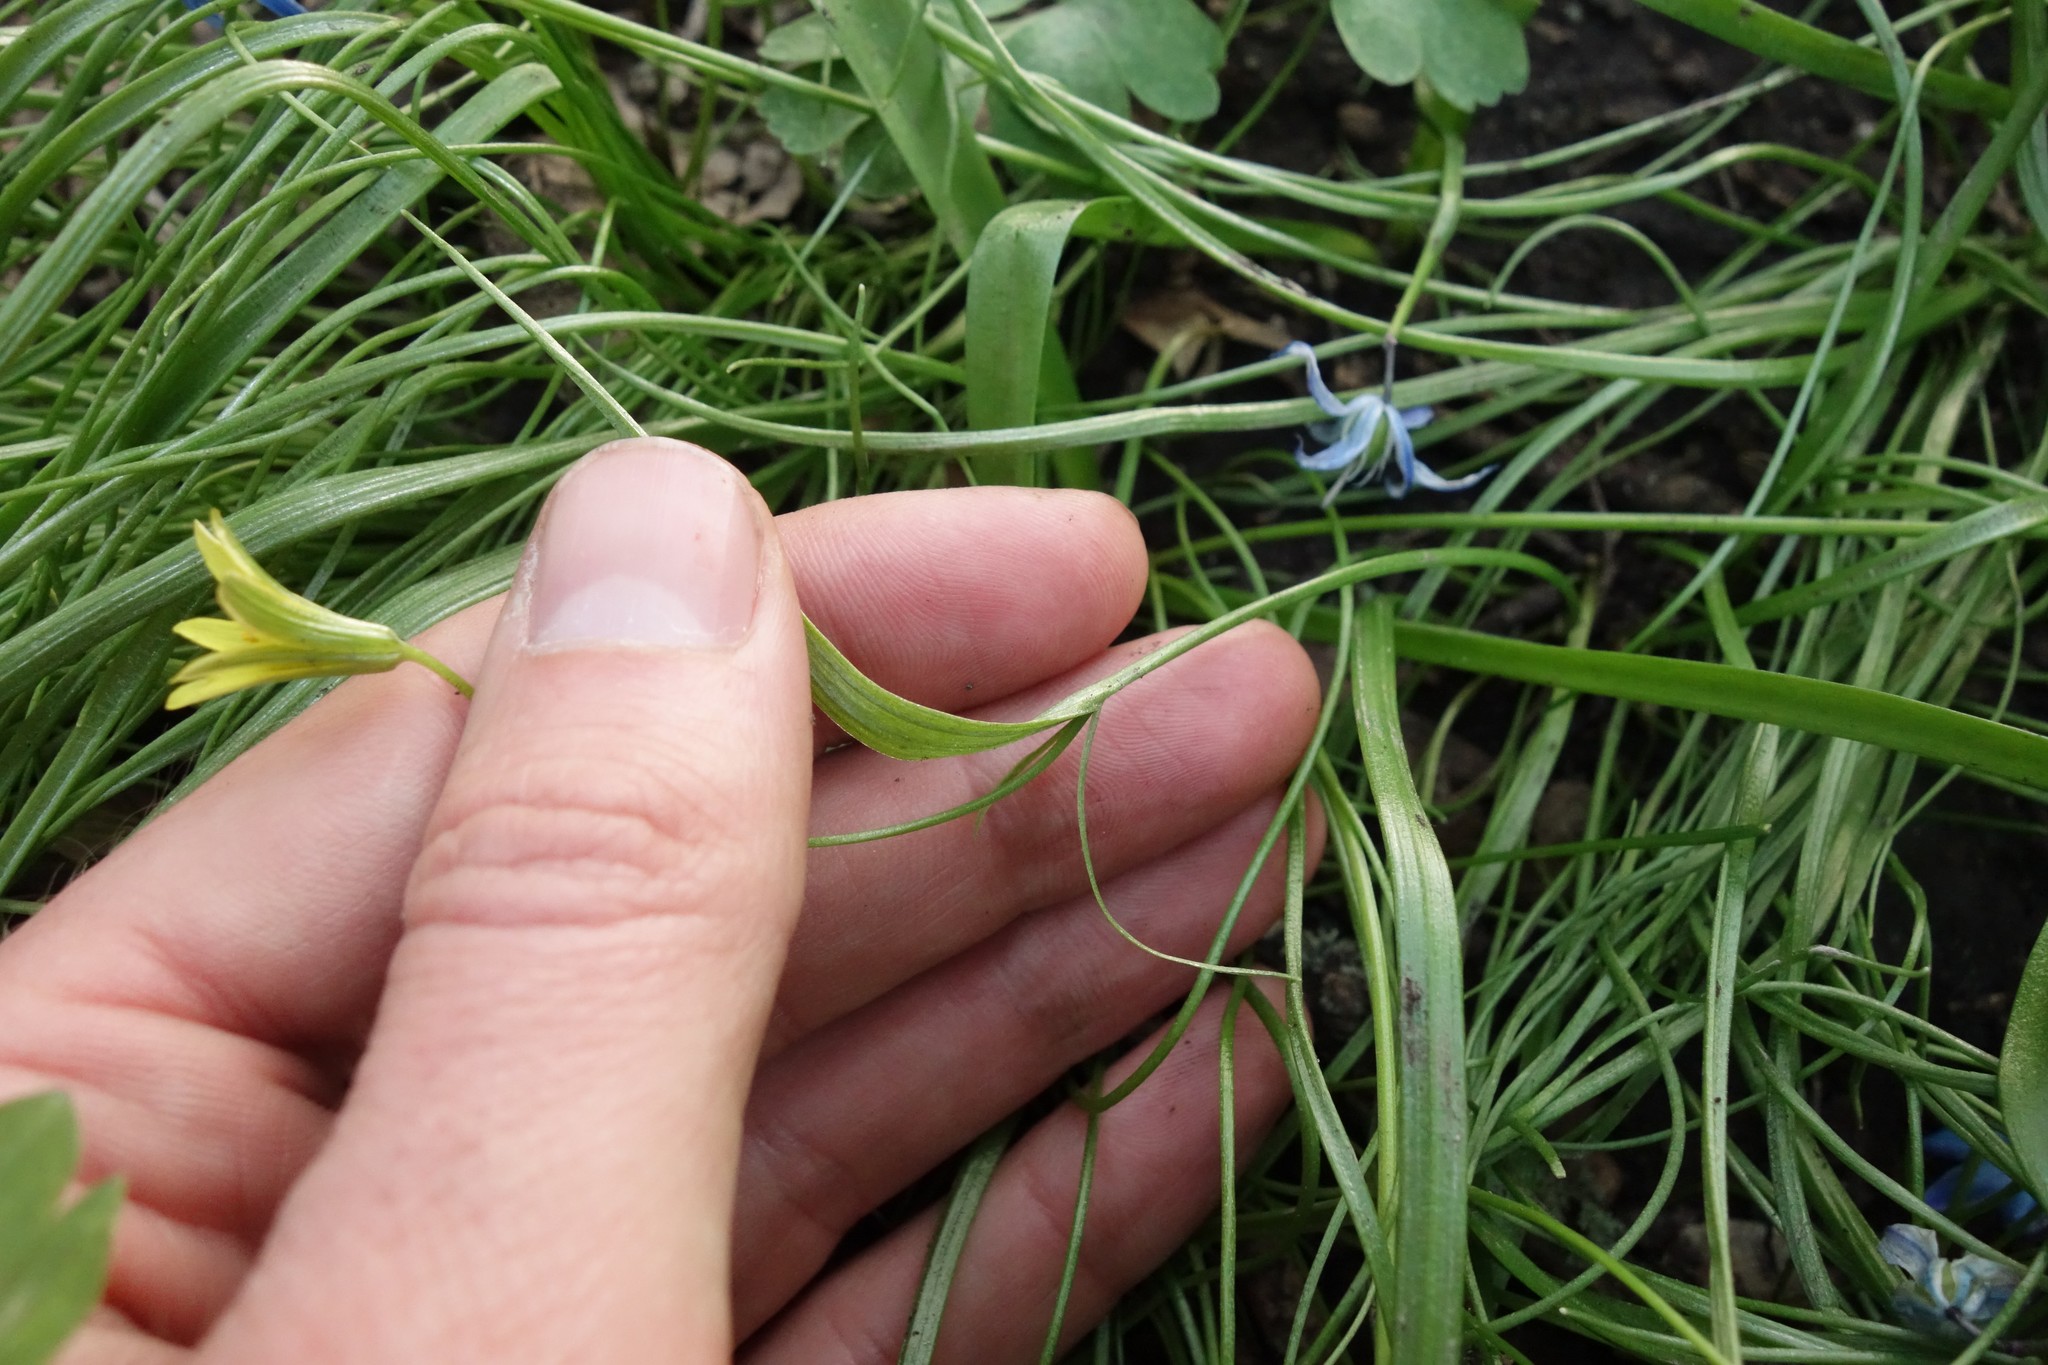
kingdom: Plantae
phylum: Tracheophyta
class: Liliopsida
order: Liliales
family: Liliaceae
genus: Gagea
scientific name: Gagea minima
